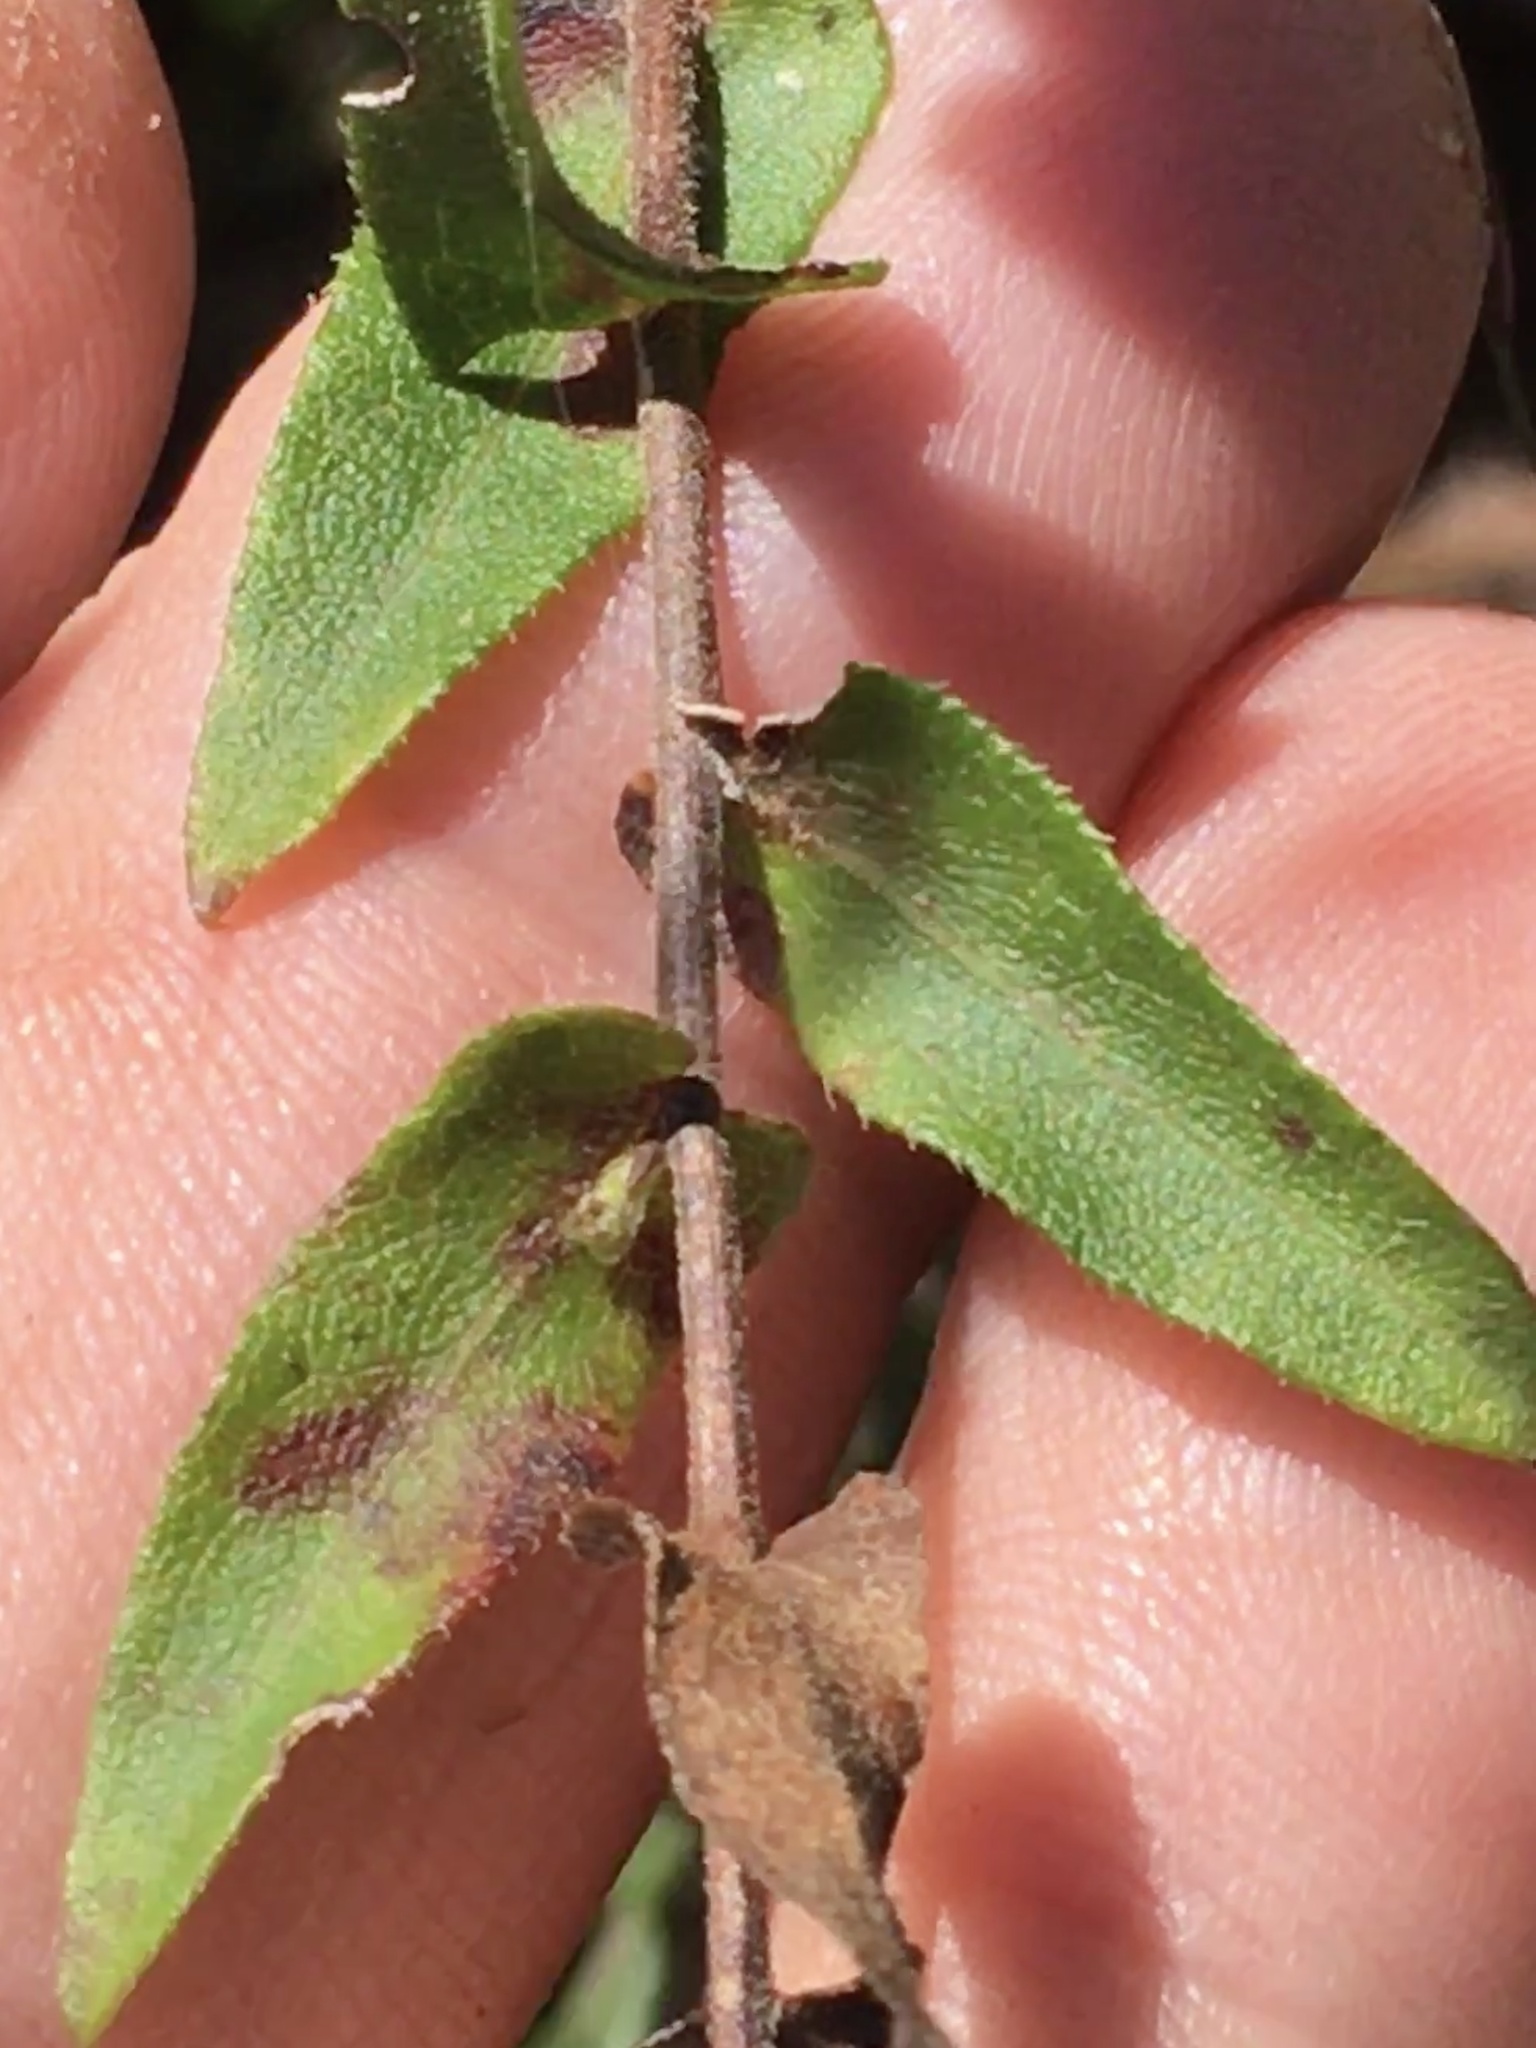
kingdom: Plantae
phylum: Tracheophyta
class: Magnoliopsida
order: Asterales
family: Asteraceae
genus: Symphyotrichum
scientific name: Symphyotrichum patens
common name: Late purple aster
